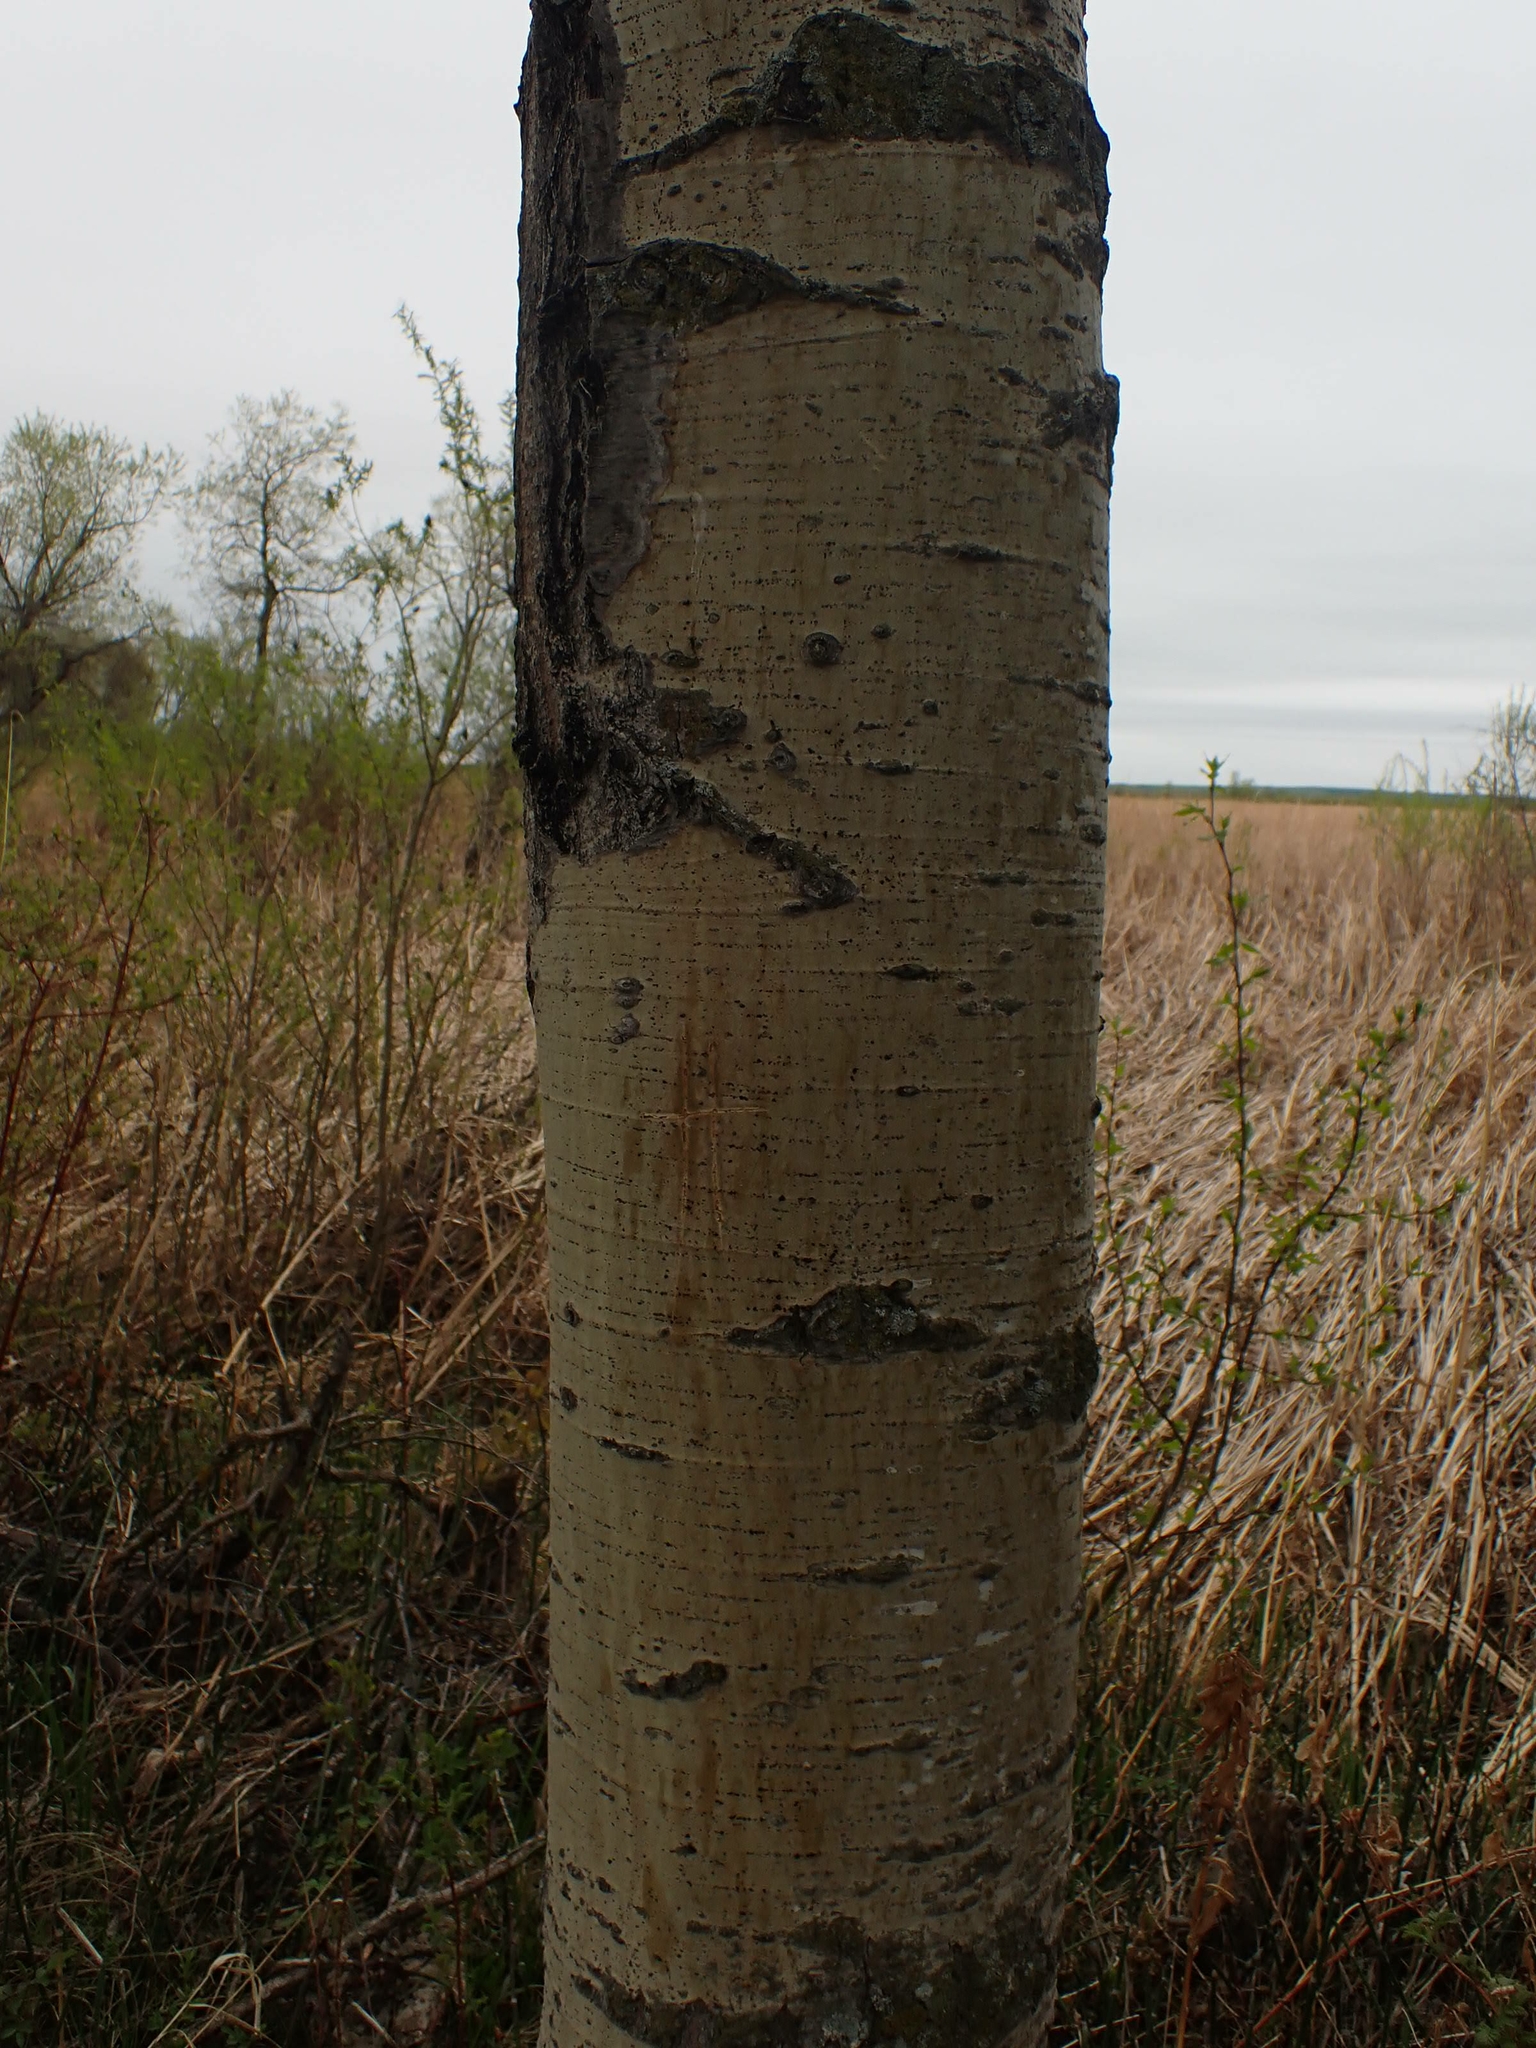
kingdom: Plantae
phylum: Tracheophyta
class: Magnoliopsida
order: Malpighiales
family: Salicaceae
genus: Populus
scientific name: Populus balsamifera
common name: Balsam poplar
